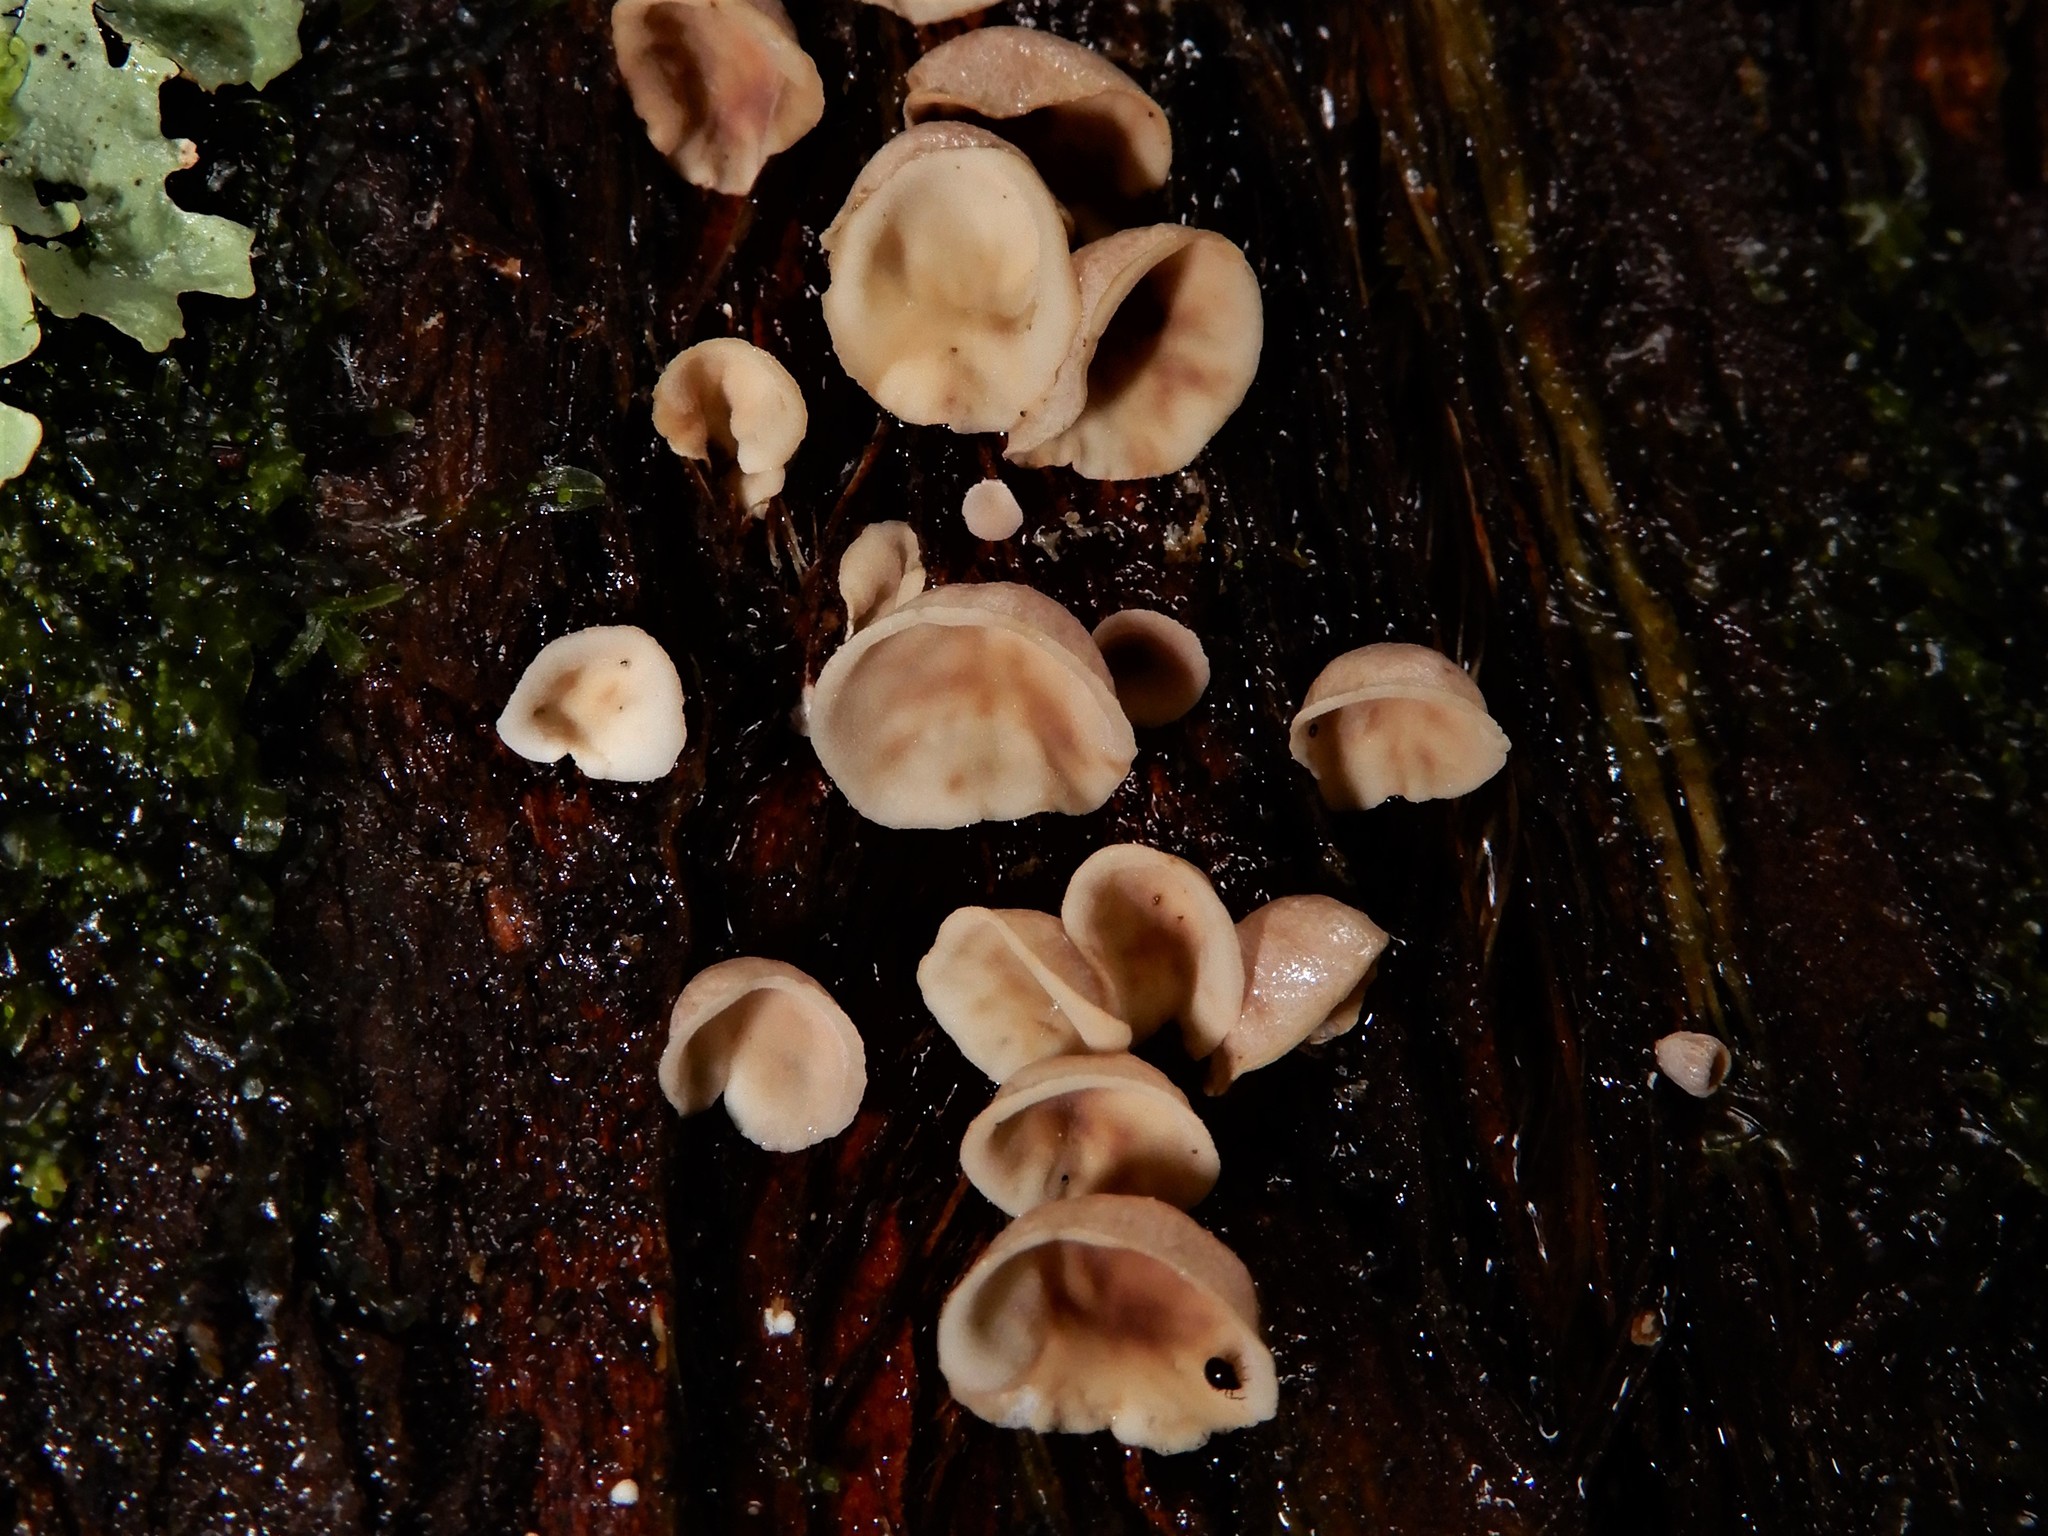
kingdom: Fungi
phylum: Basidiomycota
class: Agaricomycetes
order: Agaricales
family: Marasmiaceae
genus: Calyptella
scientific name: Calyptella totara
